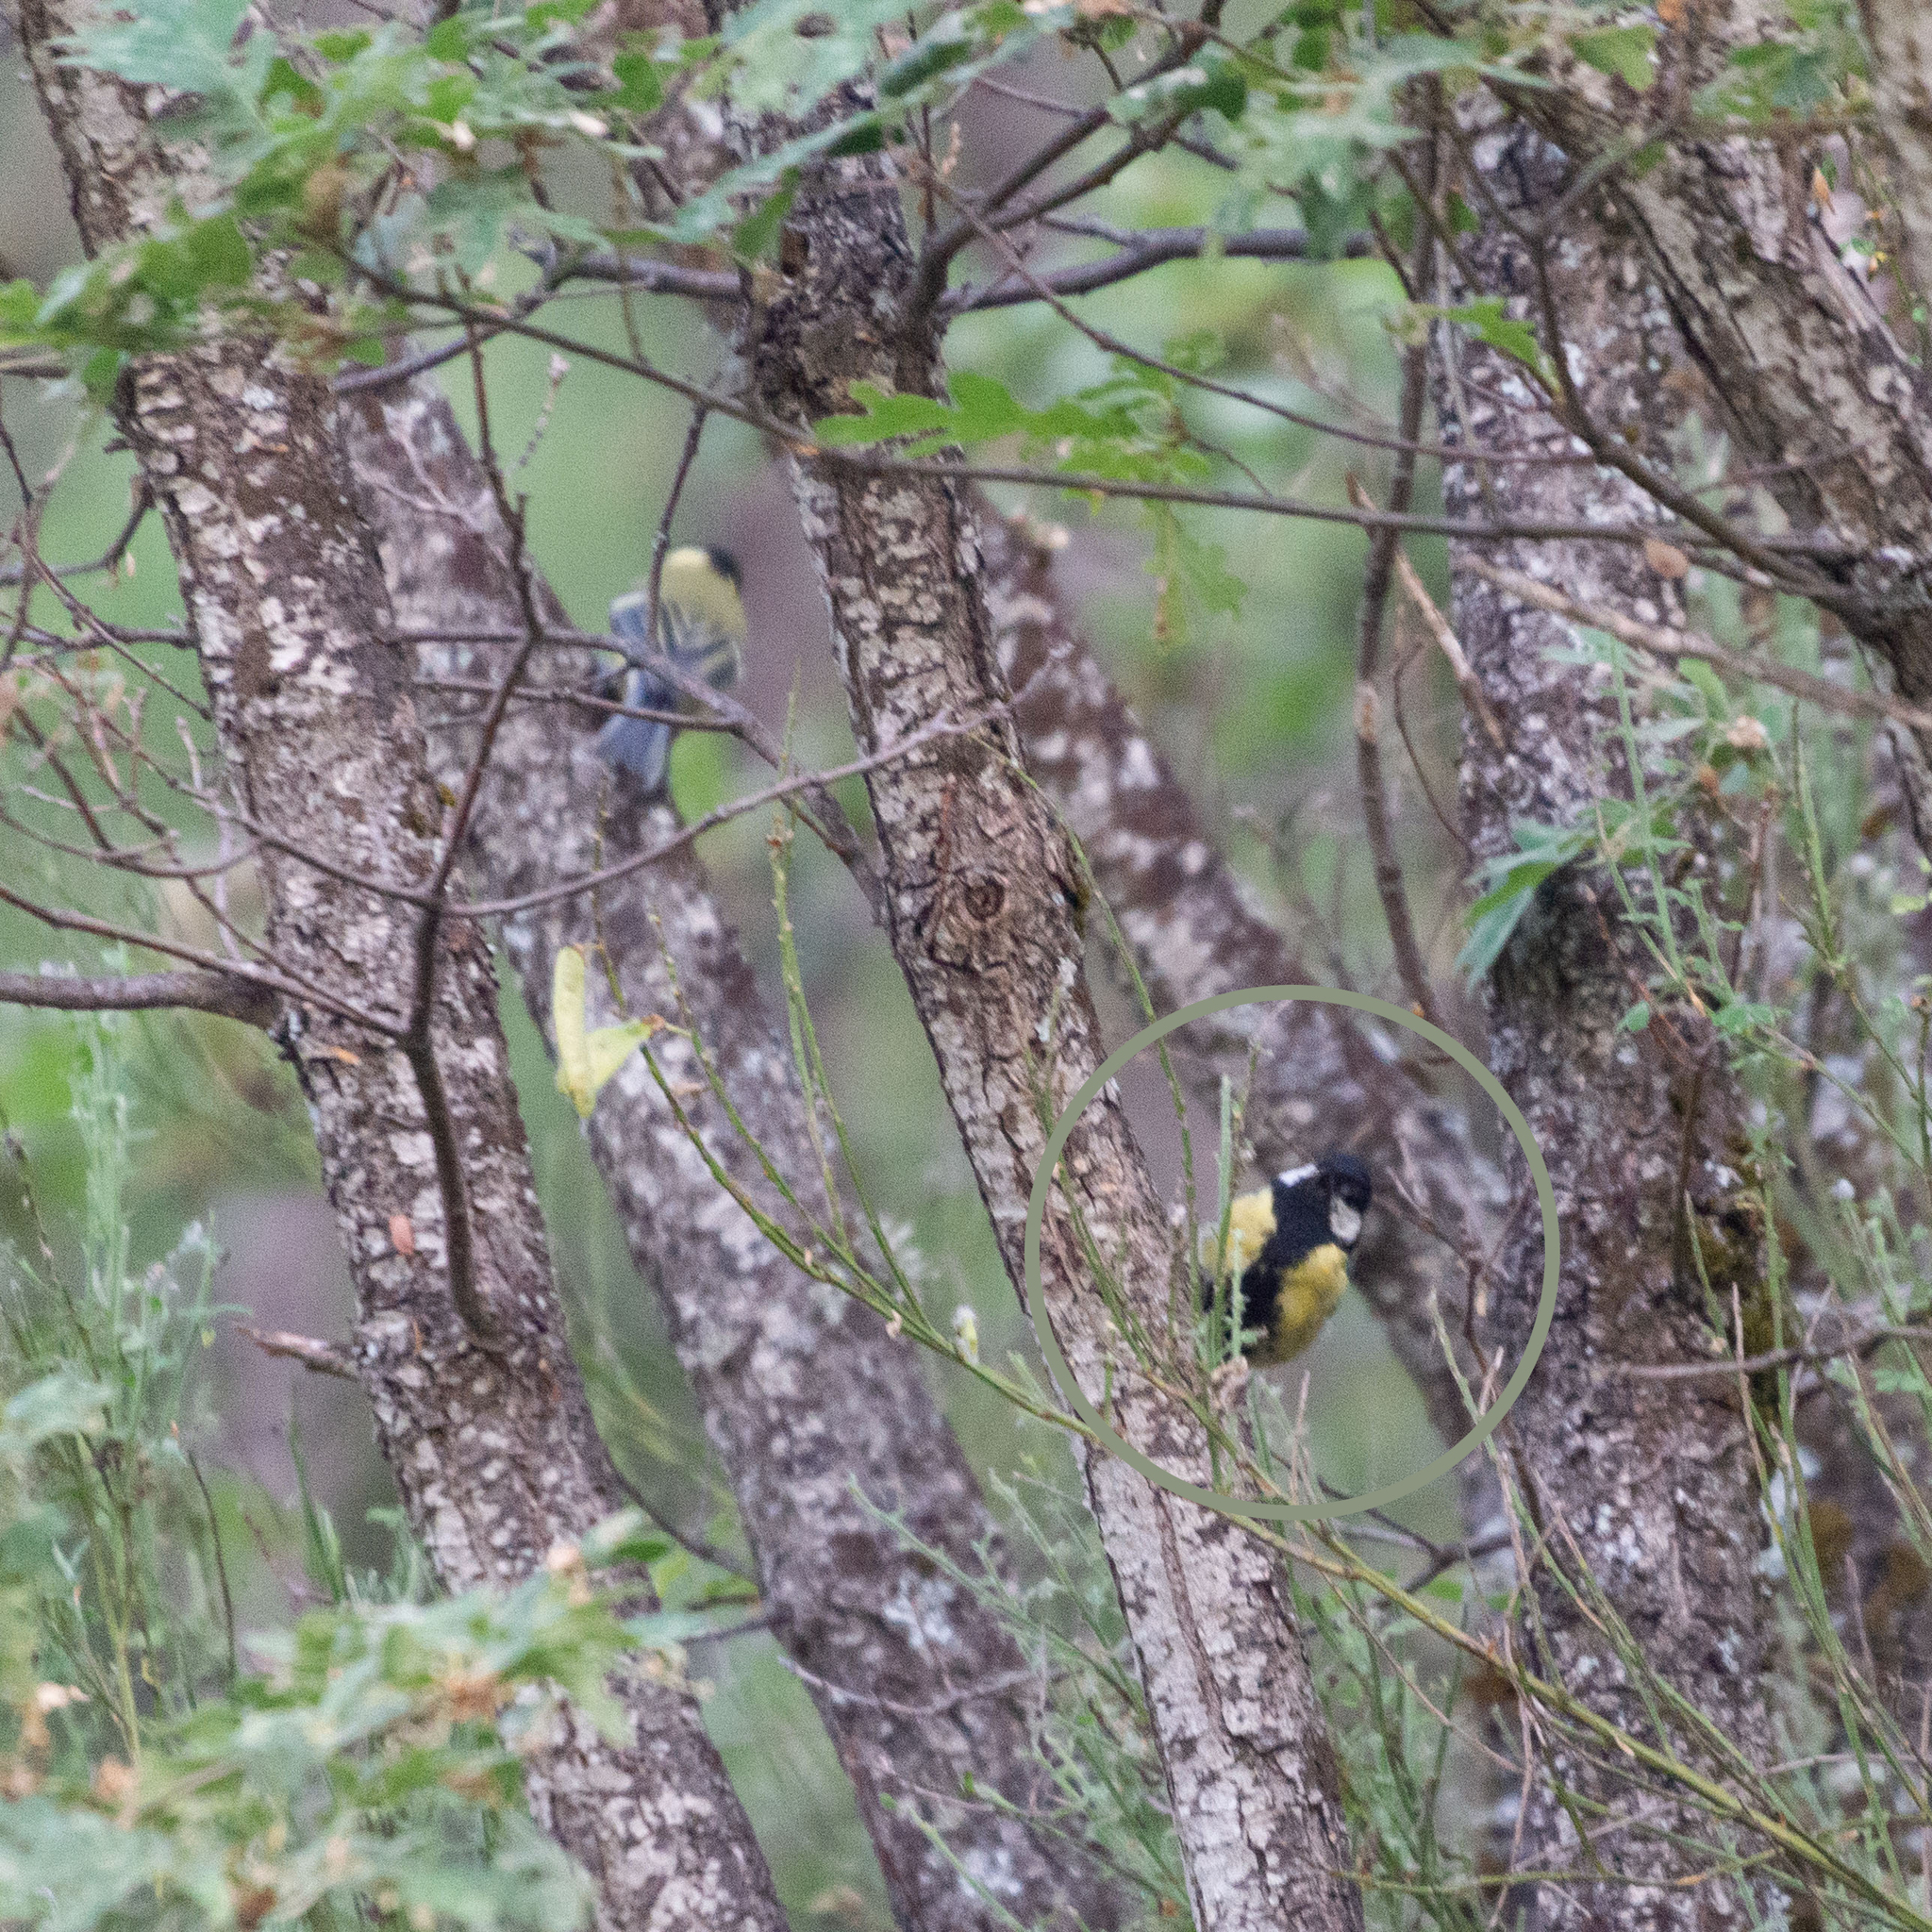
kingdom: Animalia
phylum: Chordata
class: Aves
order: Passeriformes
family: Paridae
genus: Parus
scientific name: Parus major
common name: Great tit
